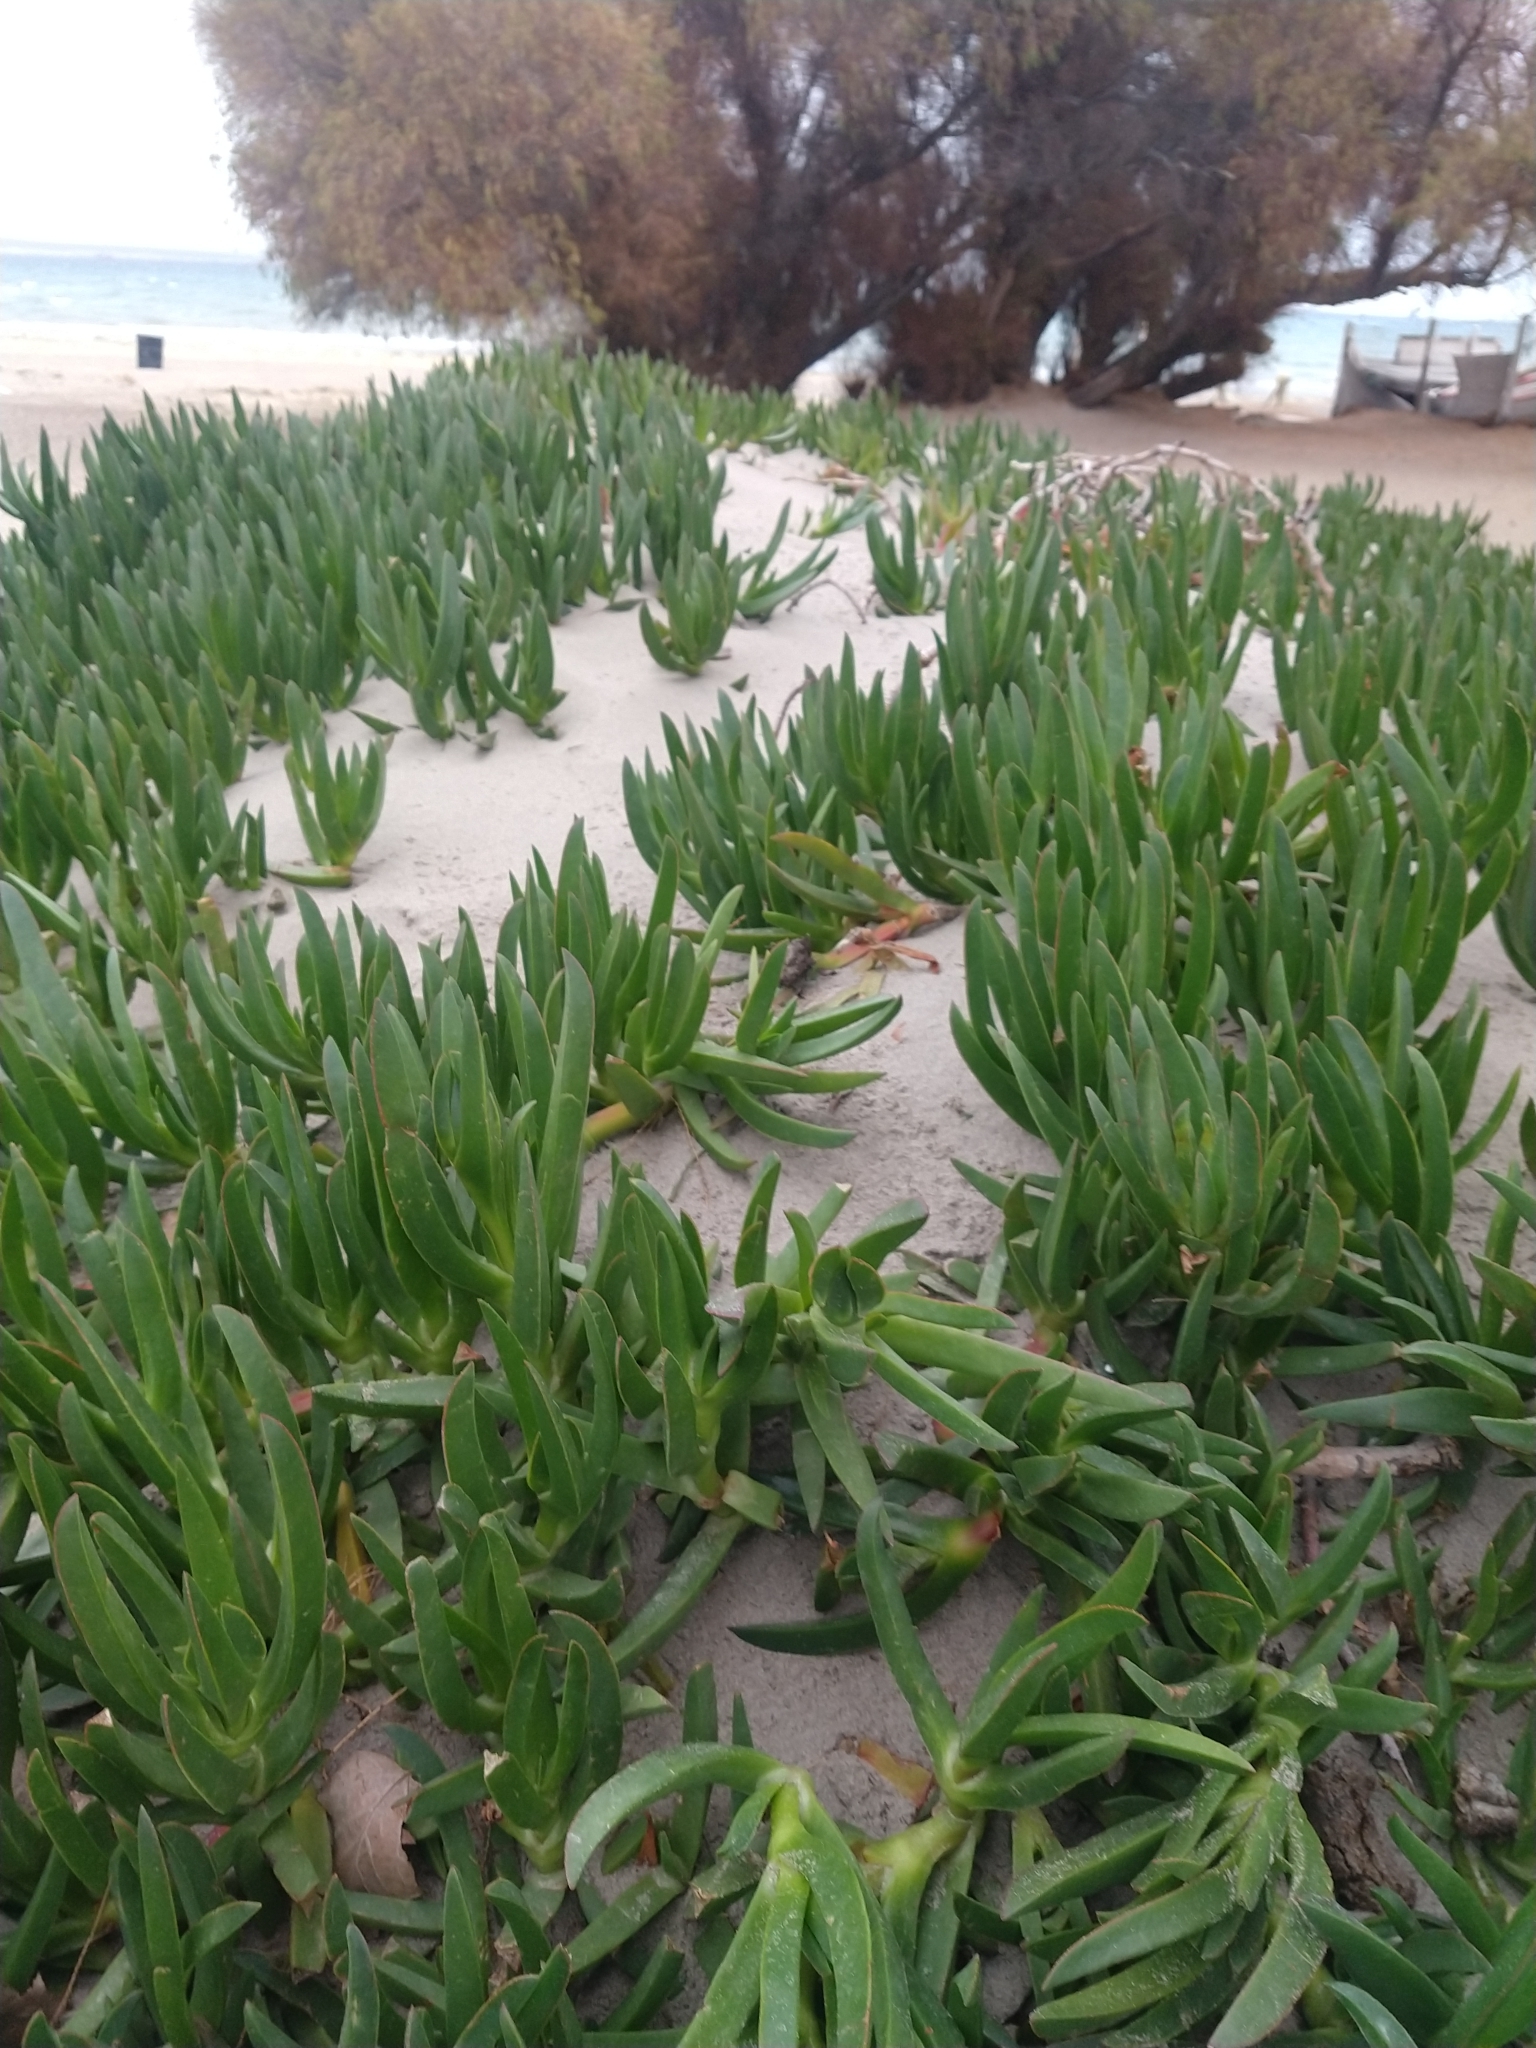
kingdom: Plantae
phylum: Tracheophyta
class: Magnoliopsida
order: Caryophyllales
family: Aizoaceae
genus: Carpobrotus
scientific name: Carpobrotus edulis
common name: Hottentot-fig
